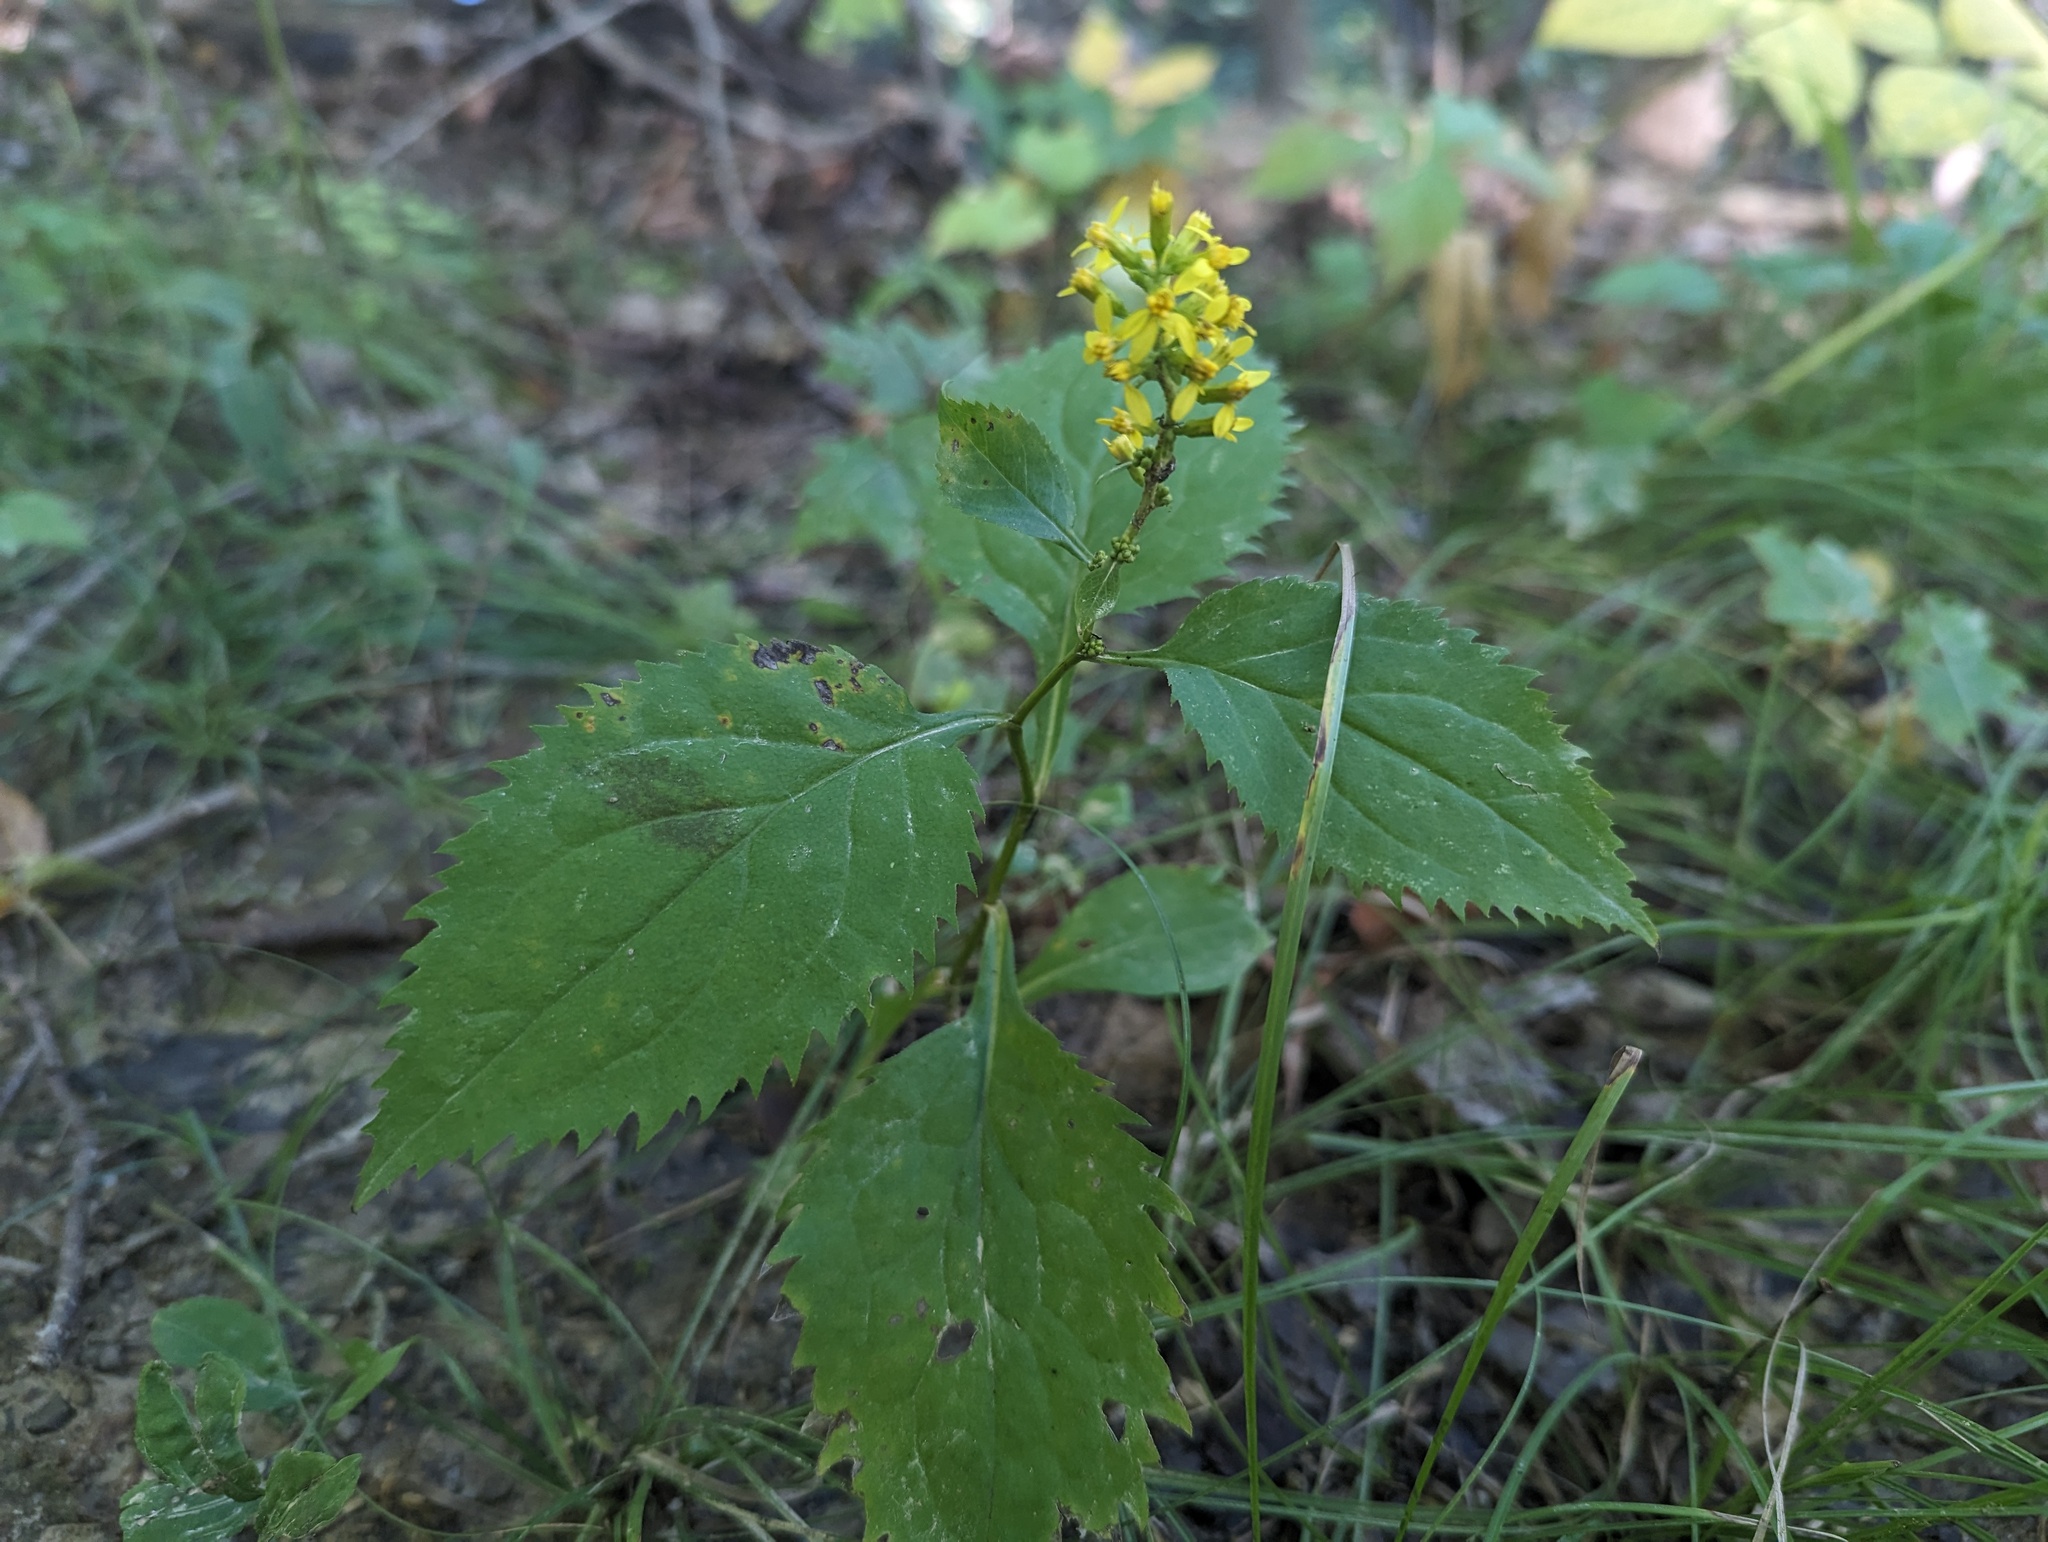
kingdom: Plantae
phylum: Tracheophyta
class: Magnoliopsida
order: Asterales
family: Asteraceae
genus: Solidago
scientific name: Solidago flexicaulis
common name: Zig-zag goldenrod
